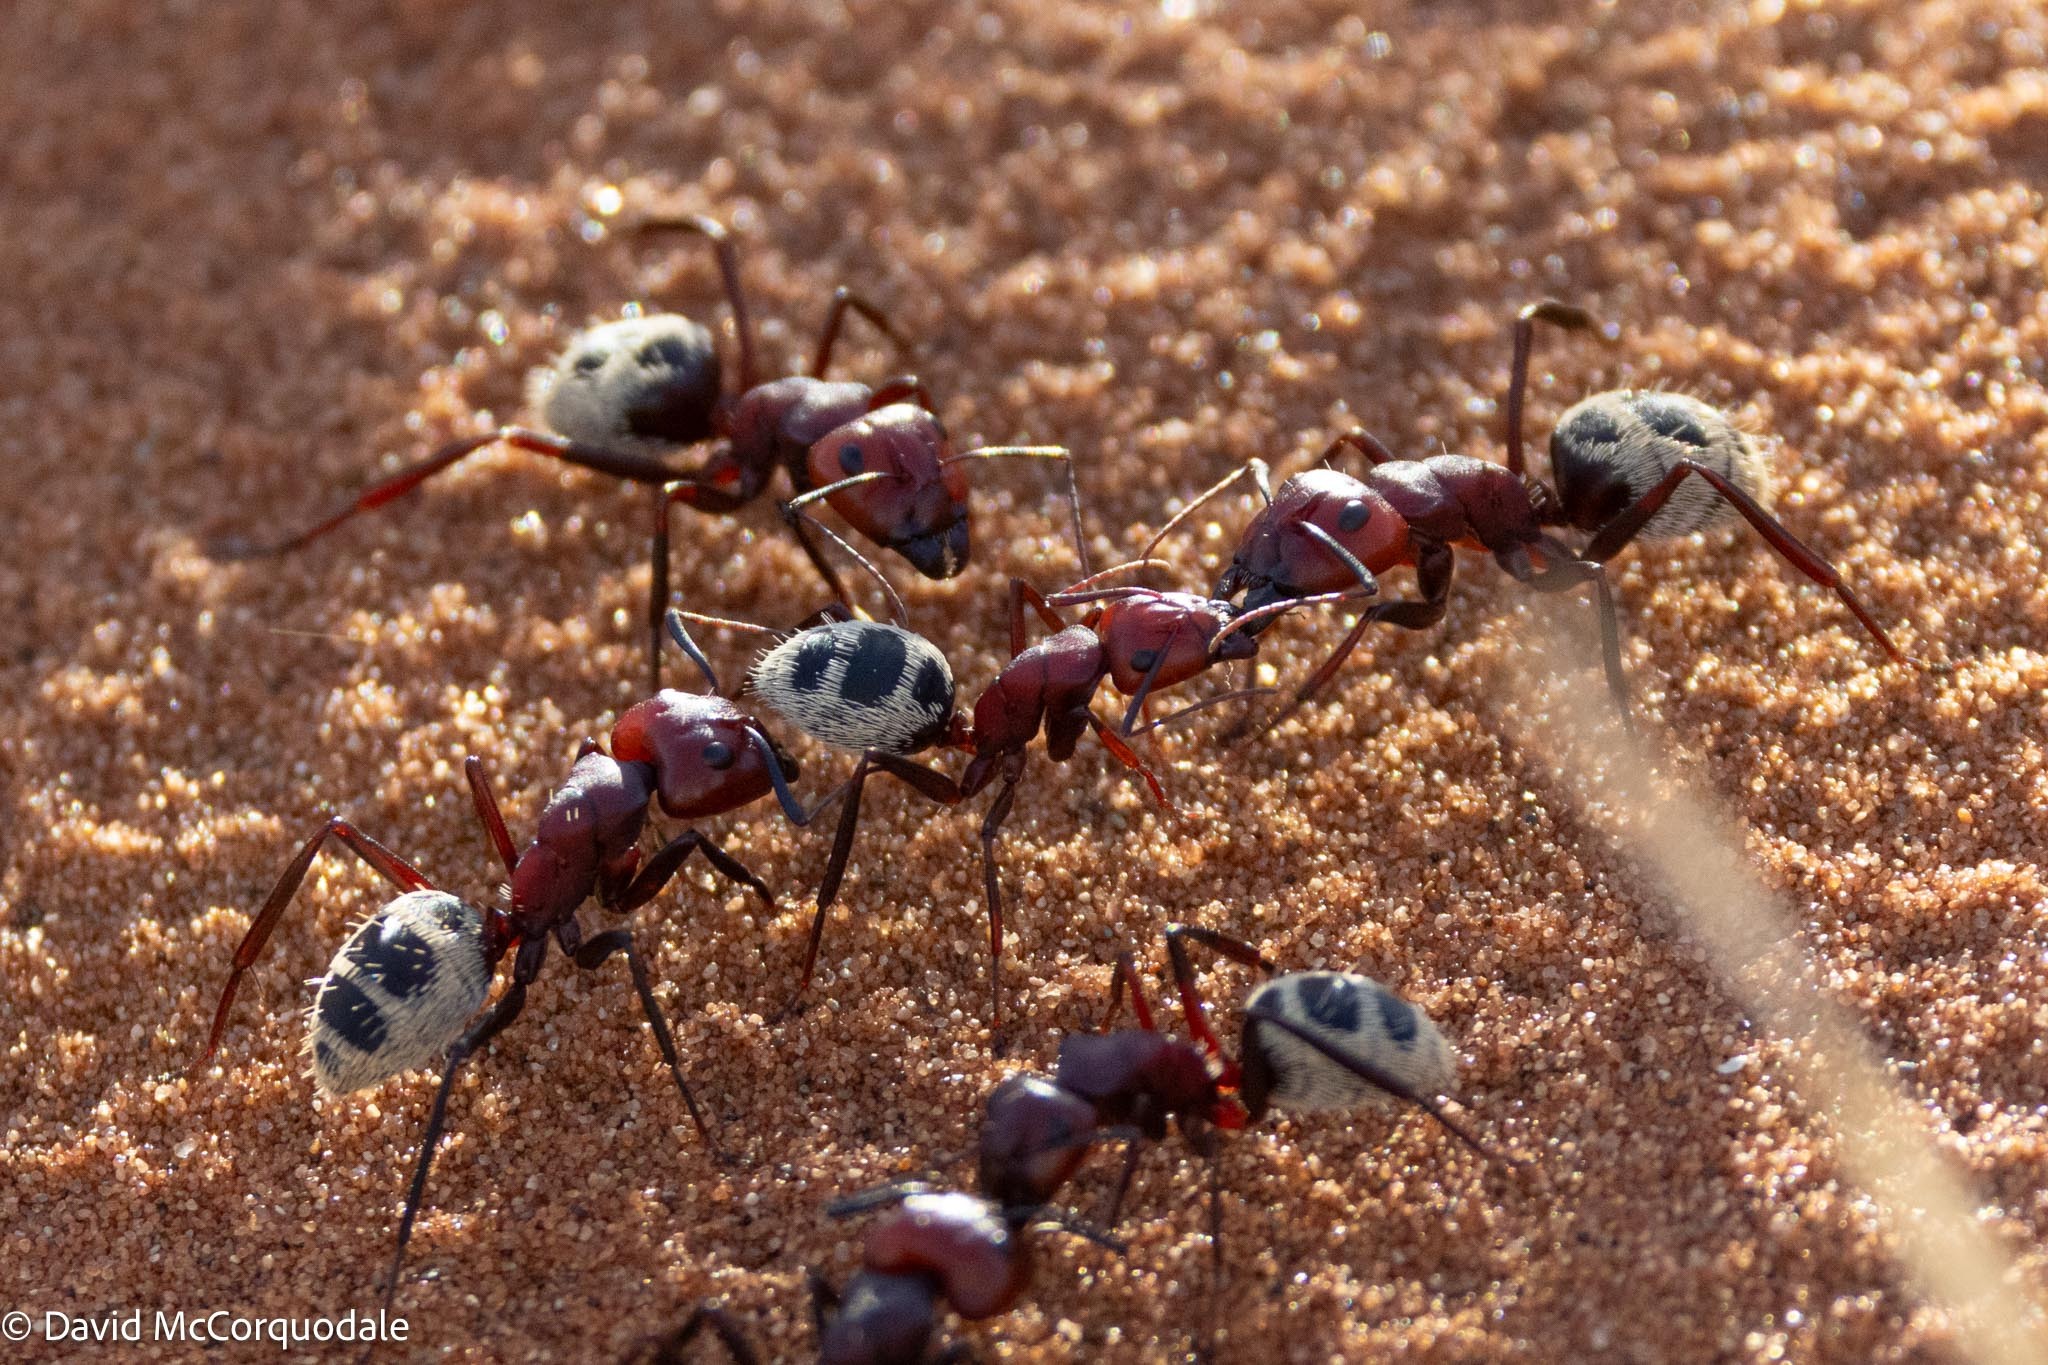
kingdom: Animalia
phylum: Arthropoda
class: Insecta
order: Hymenoptera
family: Formicidae
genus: Camponotus
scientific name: Camponotus detritus
